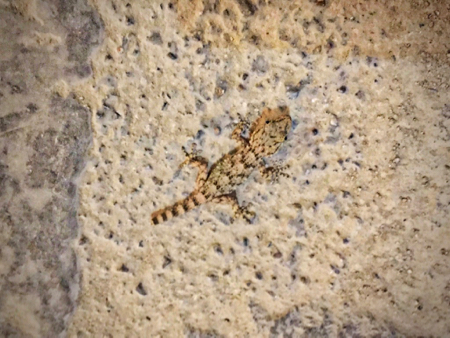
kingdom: Animalia
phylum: Chordata
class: Squamata
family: Phyllodactylidae
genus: Tarentola
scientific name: Tarentola mauritanica
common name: Moorish gecko
